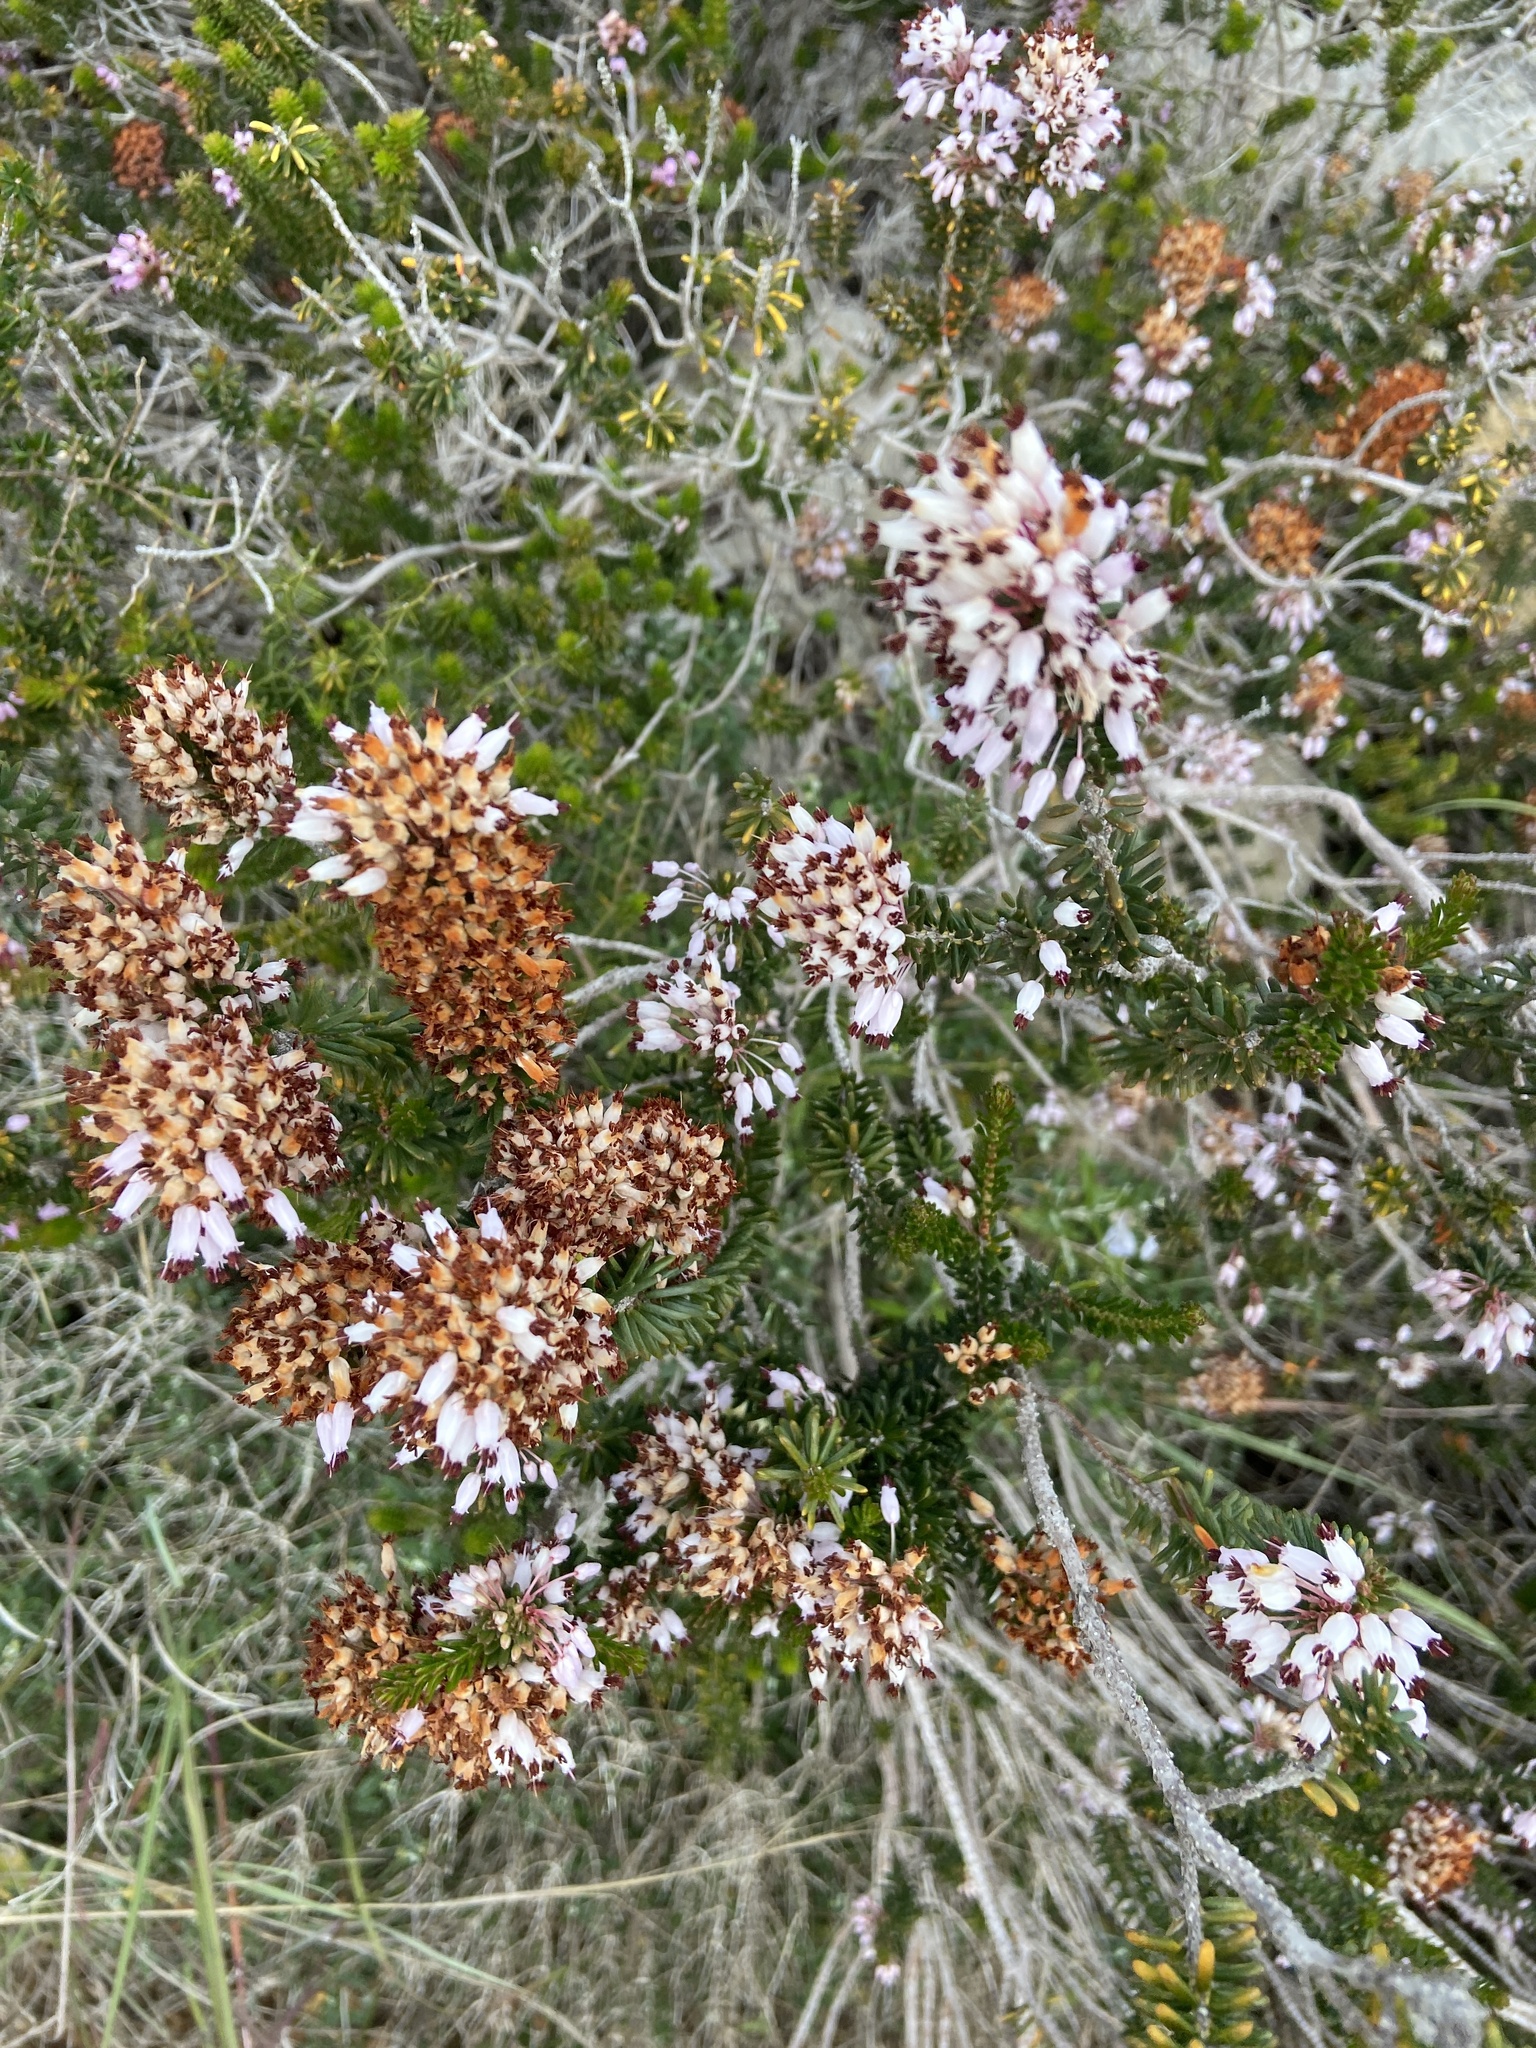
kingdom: Plantae
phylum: Tracheophyta
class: Magnoliopsida
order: Ericales
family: Ericaceae
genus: Erica
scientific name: Erica multiflora
